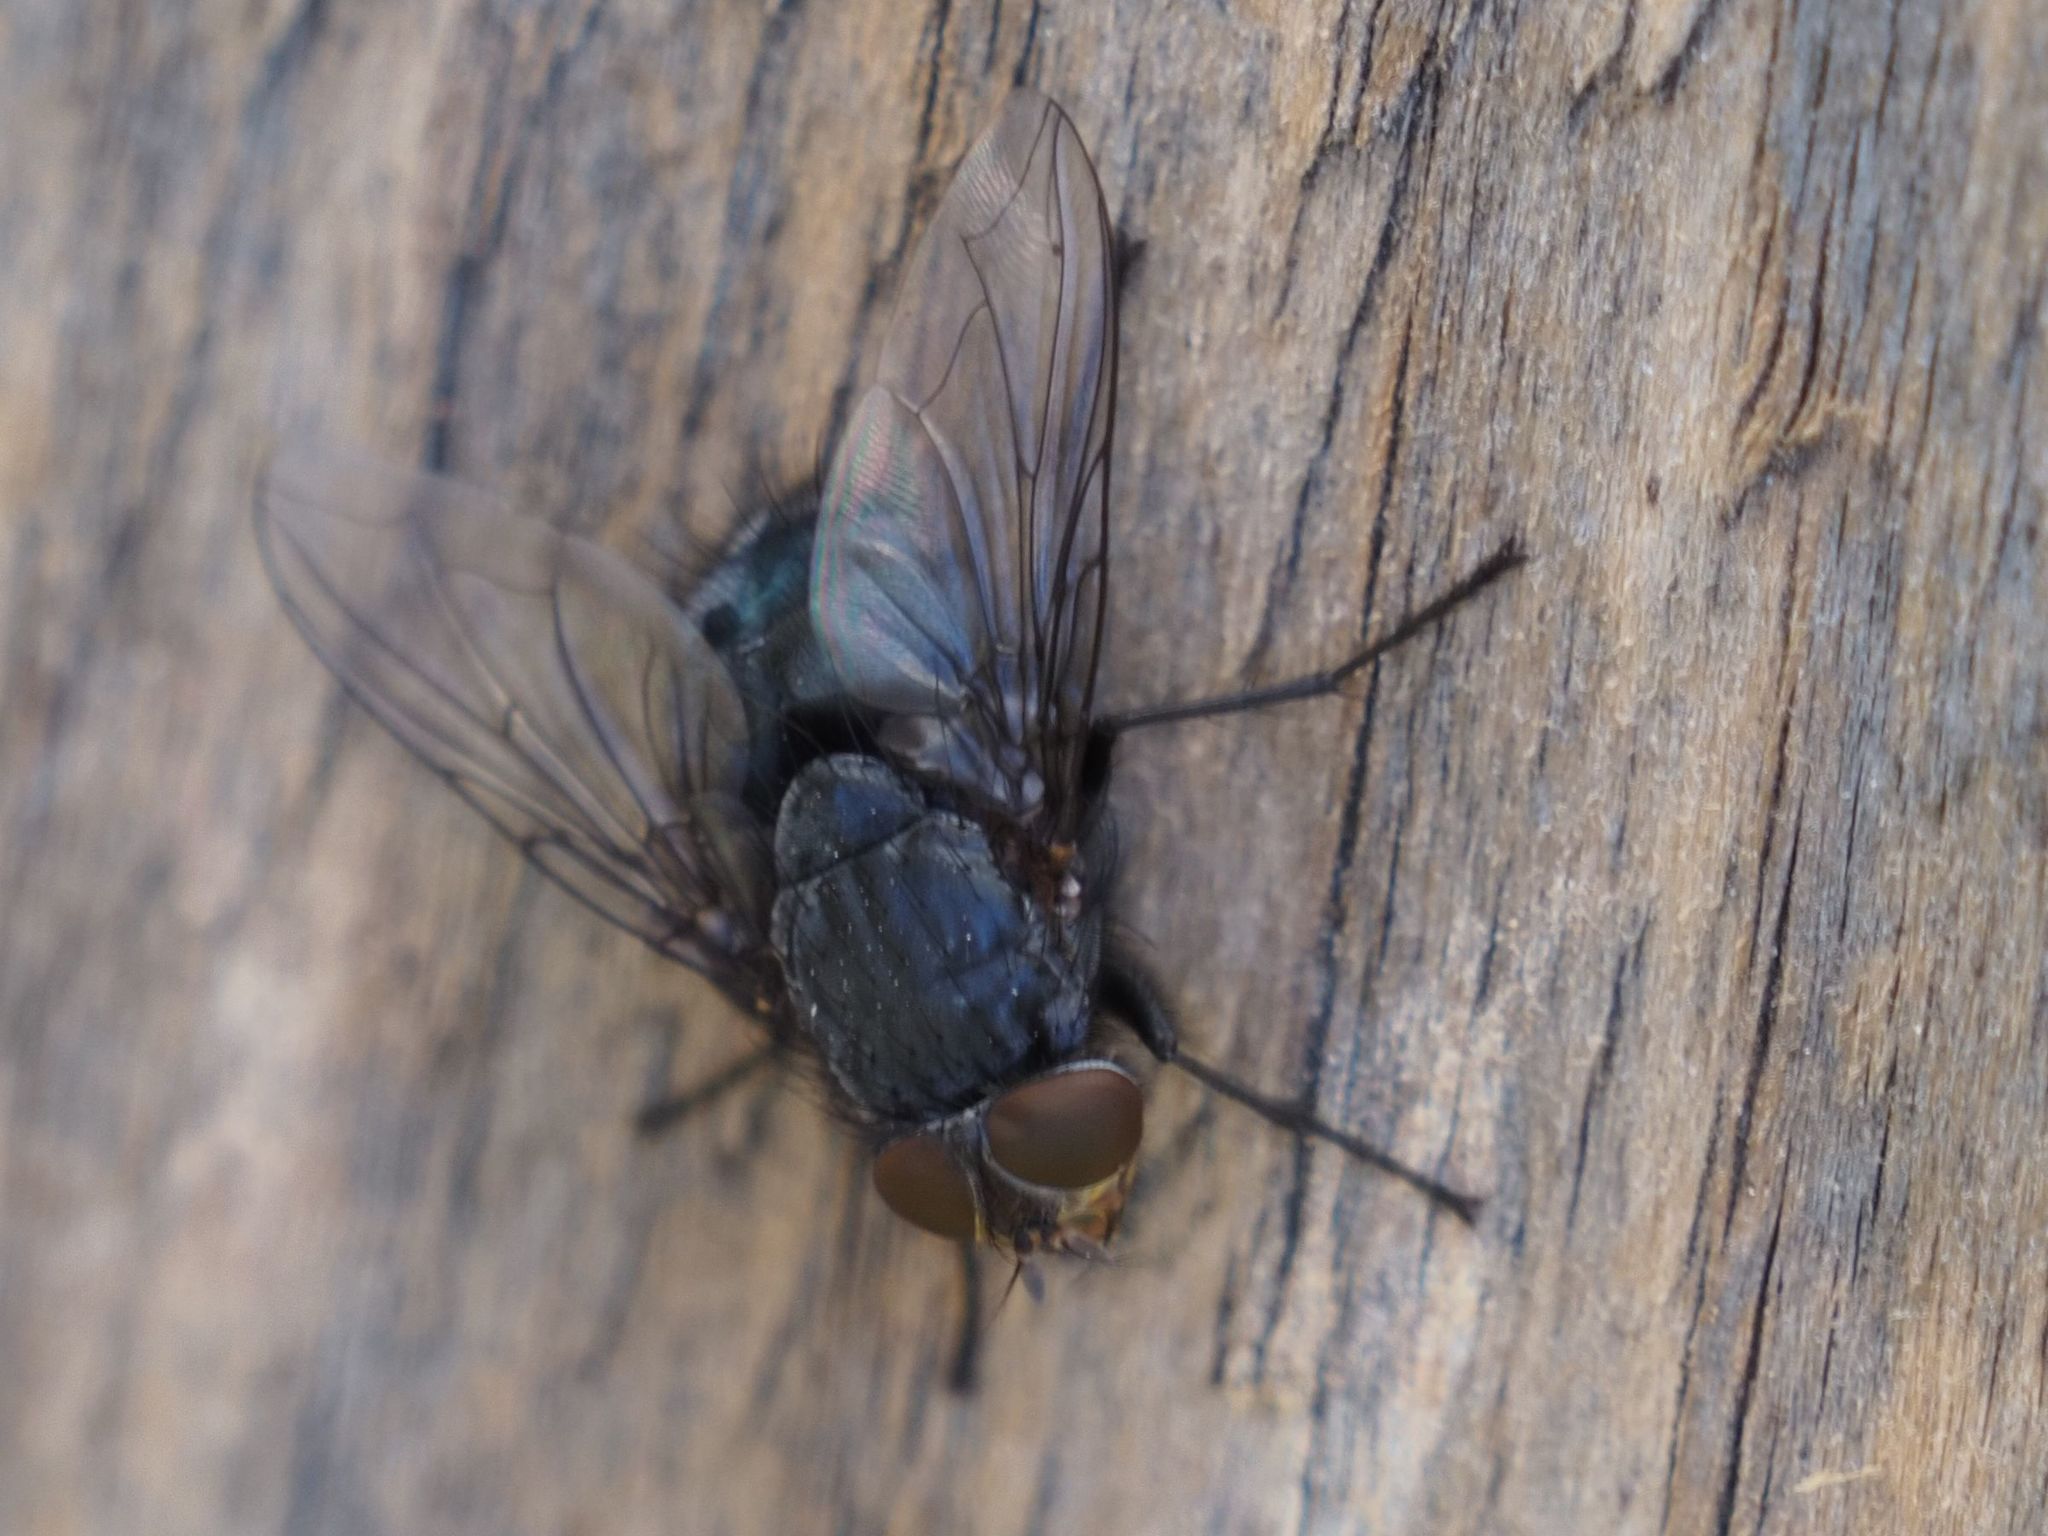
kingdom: Animalia
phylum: Arthropoda
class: Insecta
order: Diptera
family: Calliphoridae
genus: Calliphora
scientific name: Calliphora vicina
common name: Common blow flie
